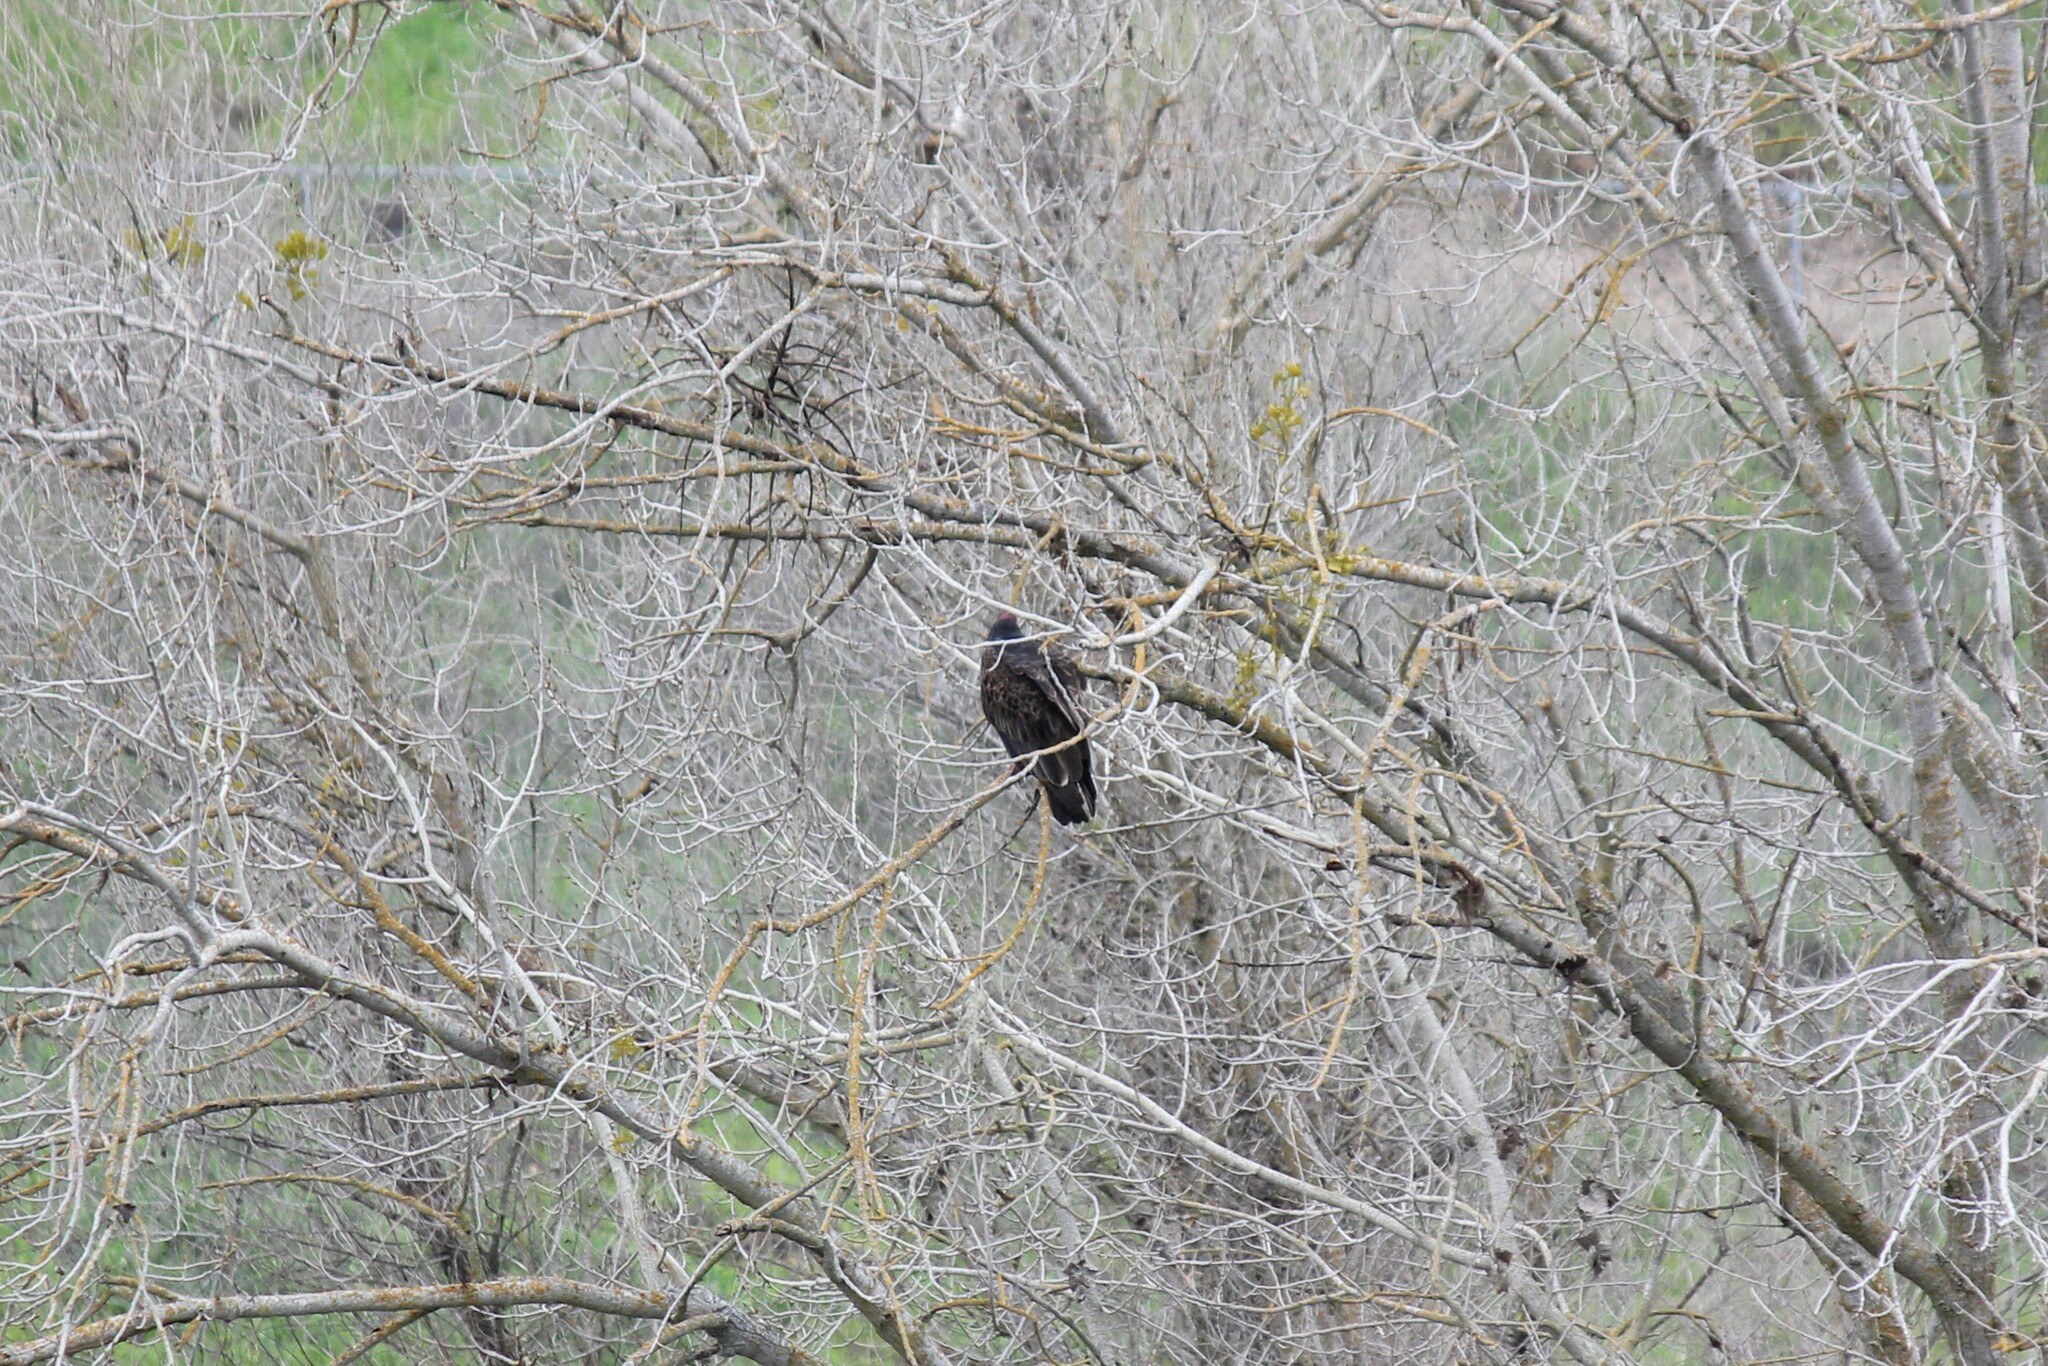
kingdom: Animalia
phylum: Chordata
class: Aves
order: Accipitriformes
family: Cathartidae
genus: Cathartes
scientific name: Cathartes aura
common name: Turkey vulture
